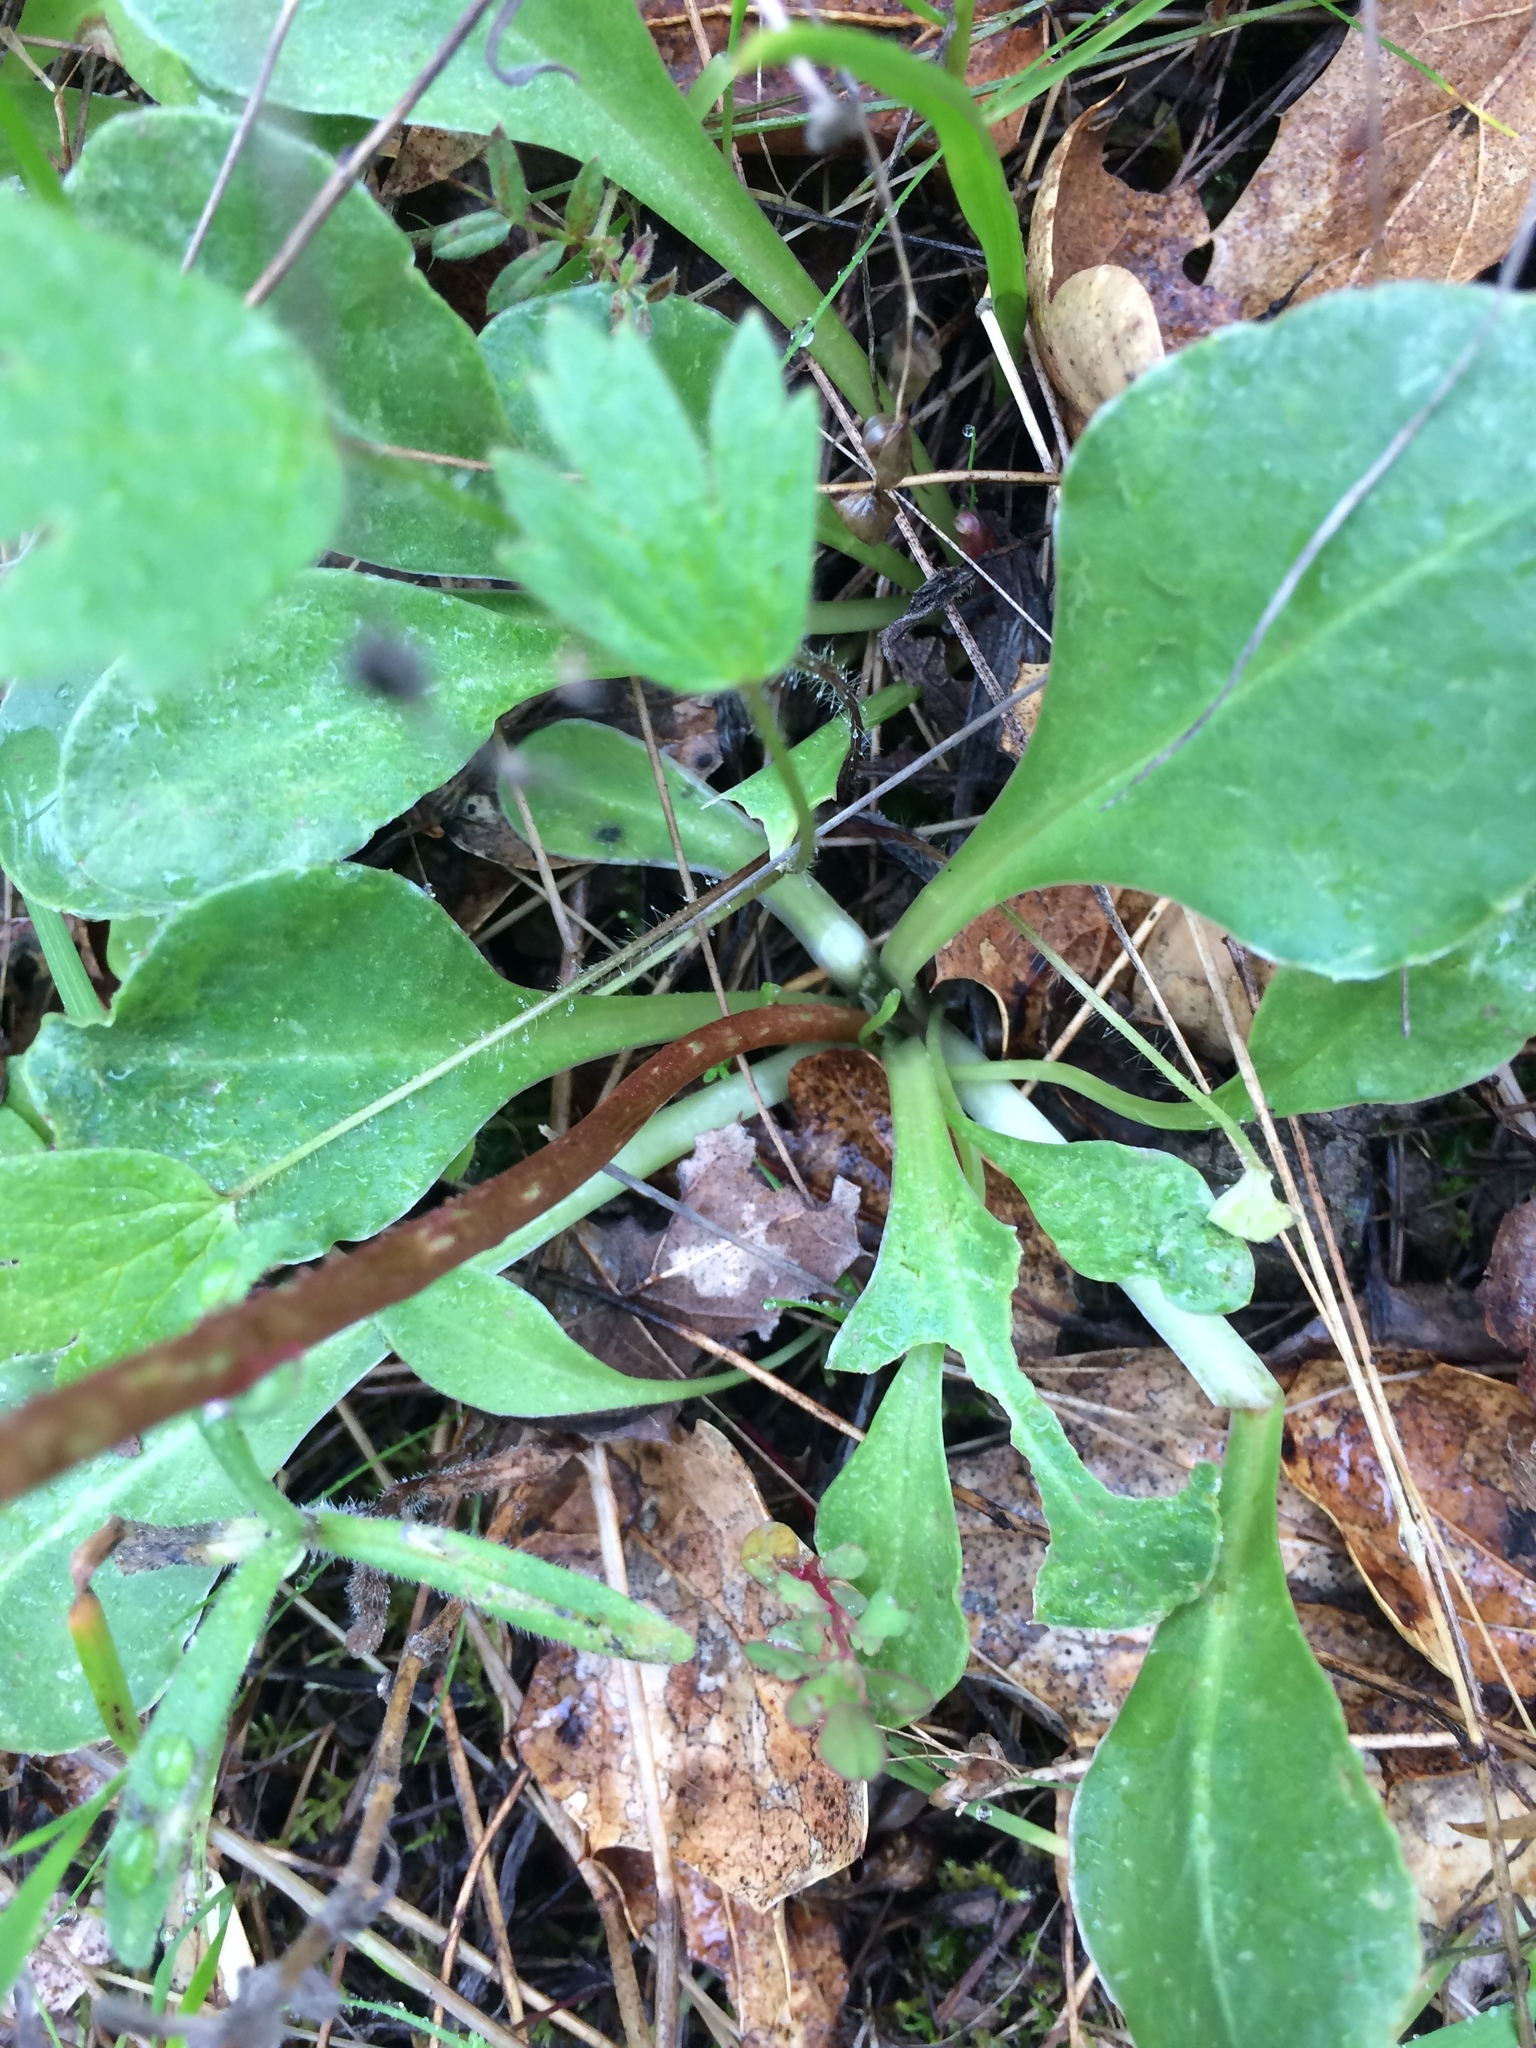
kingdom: Plantae
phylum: Tracheophyta
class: Magnoliopsida
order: Ericales
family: Primulaceae
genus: Dodecatheon
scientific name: Dodecatheon hendersonii
